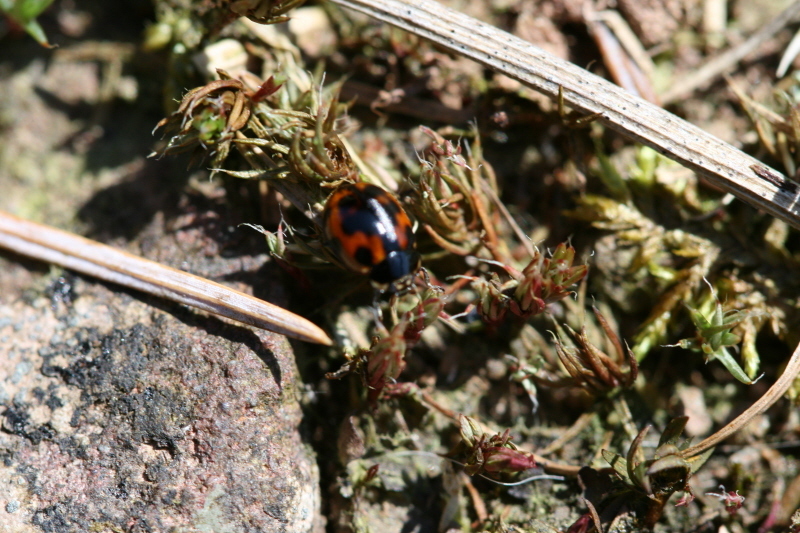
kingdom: Animalia
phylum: Arthropoda
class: Insecta
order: Coleoptera
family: Coccinellidae
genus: Adalia
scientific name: Adalia decempunctata
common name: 10-spot ladybird
